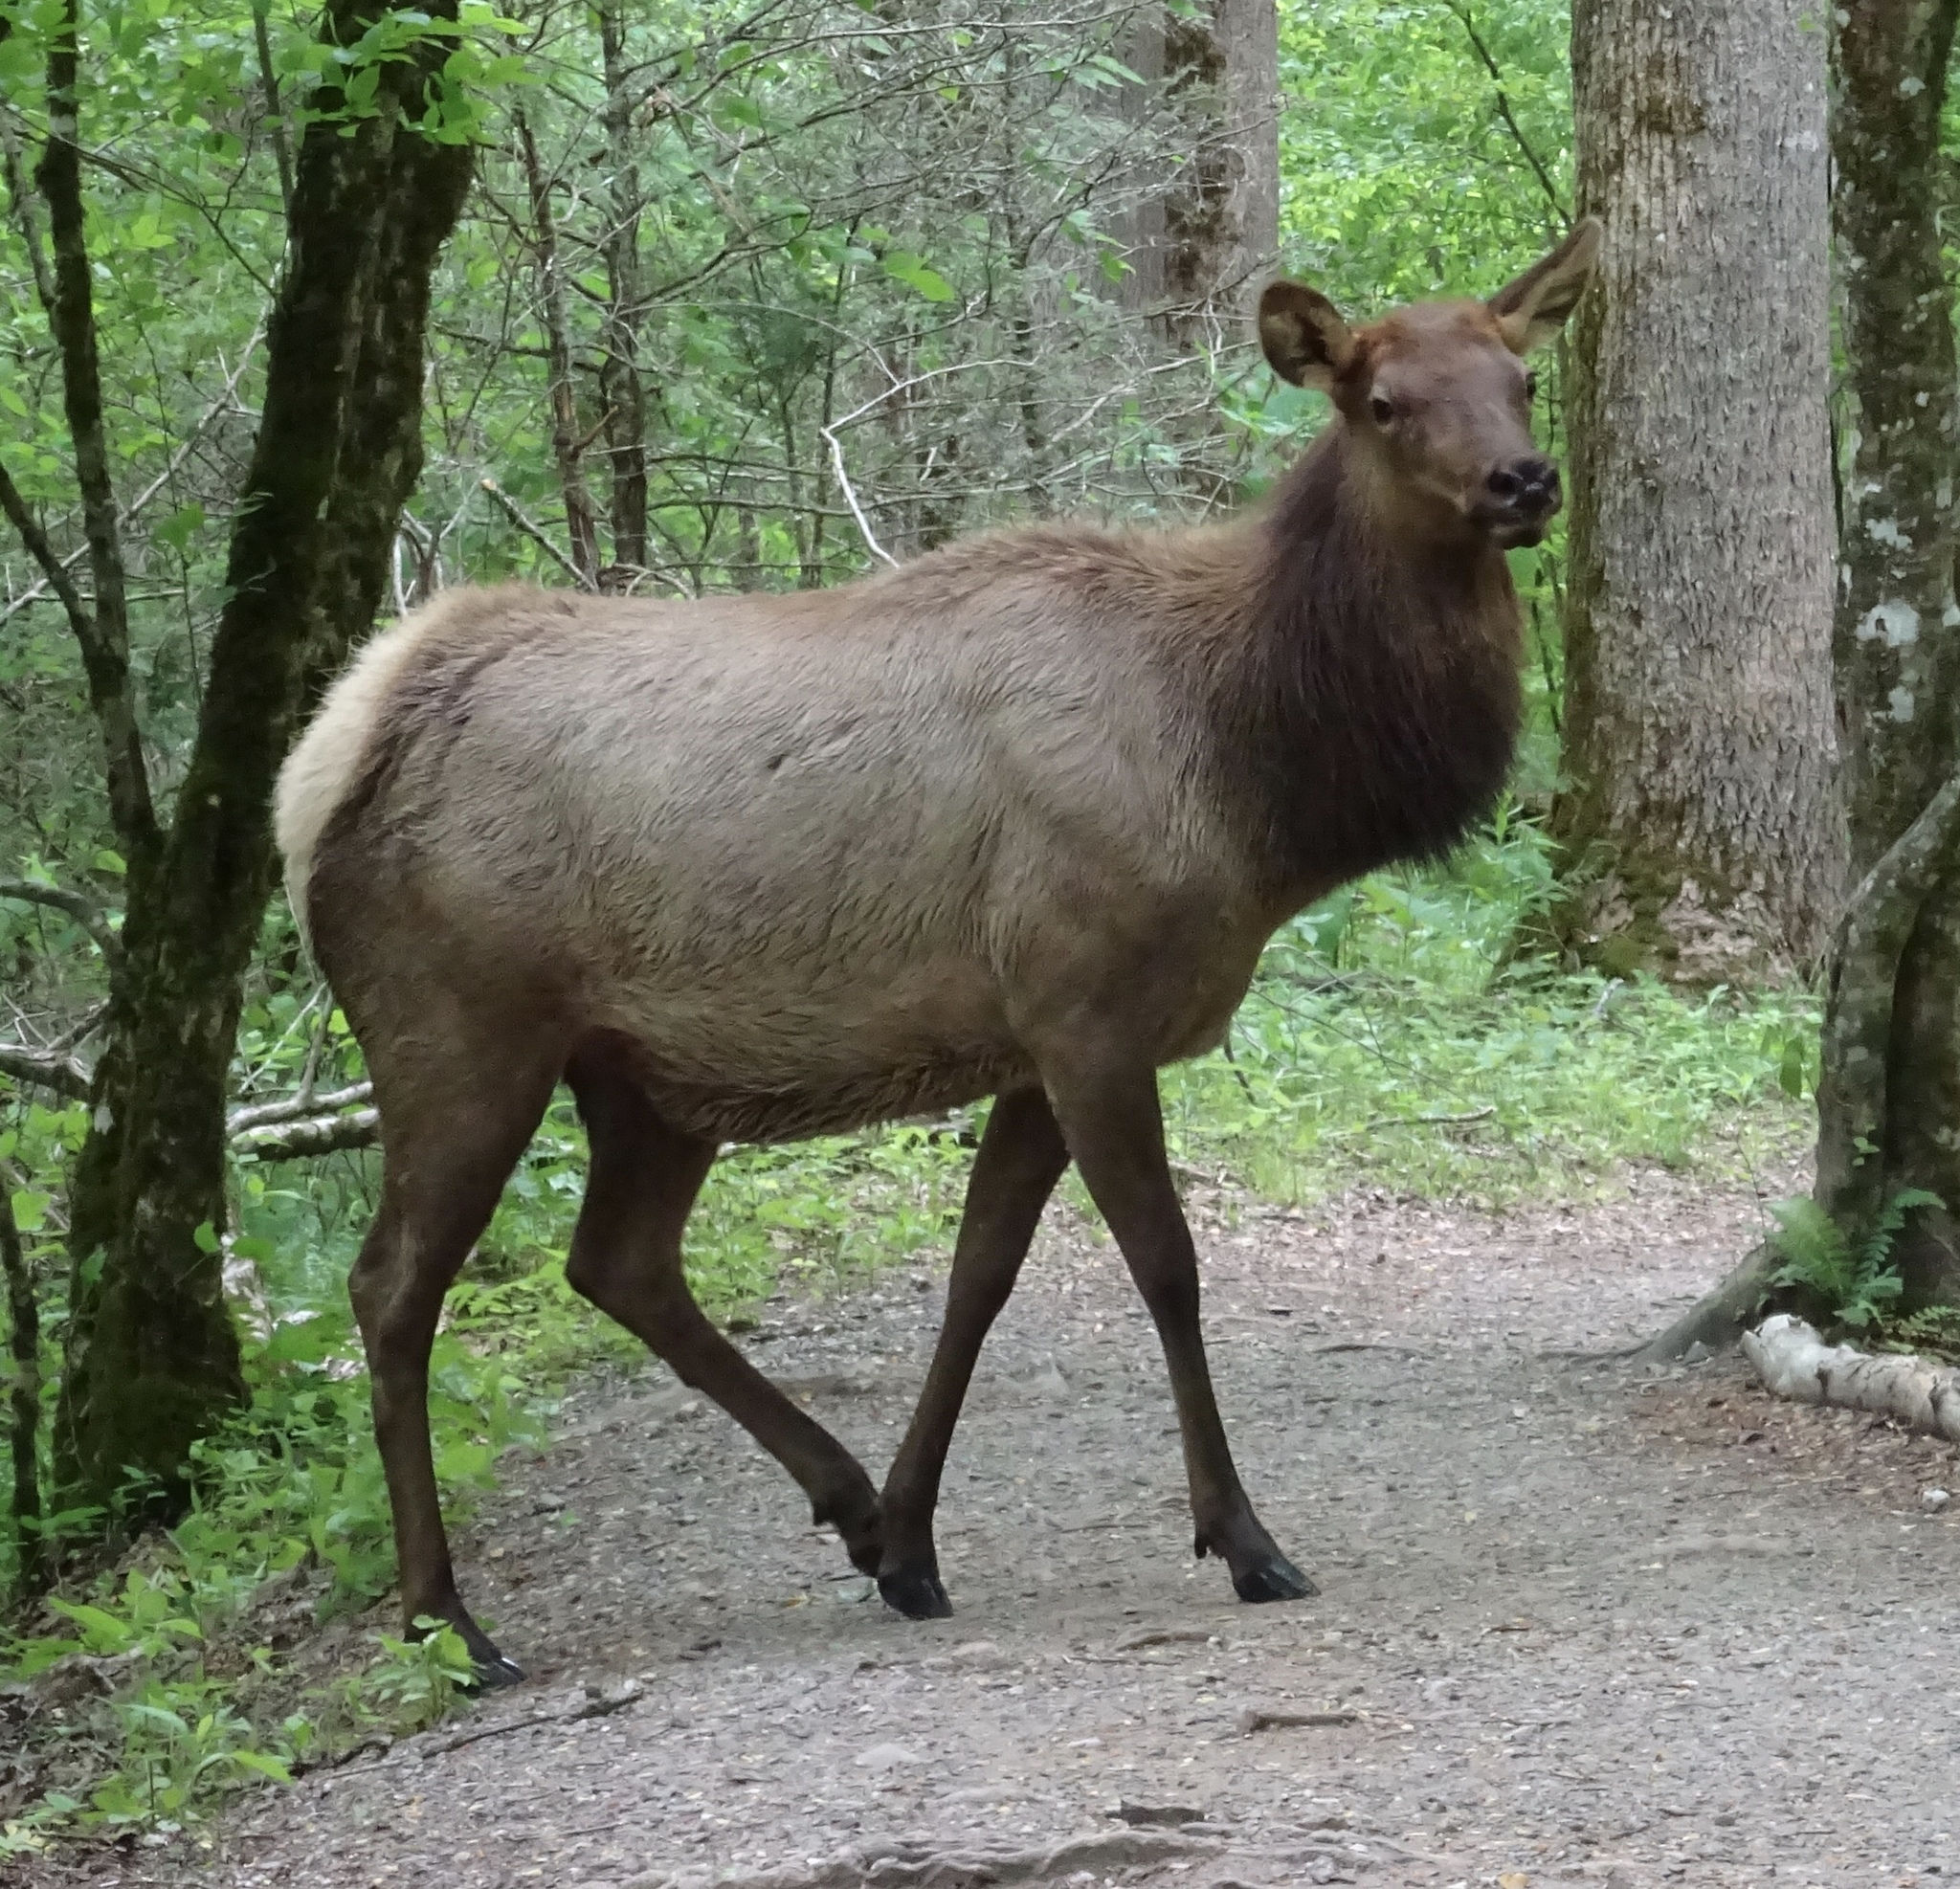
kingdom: Animalia
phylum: Chordata
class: Mammalia
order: Artiodactyla
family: Cervidae
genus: Cervus
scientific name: Cervus elaphus
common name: Red deer
